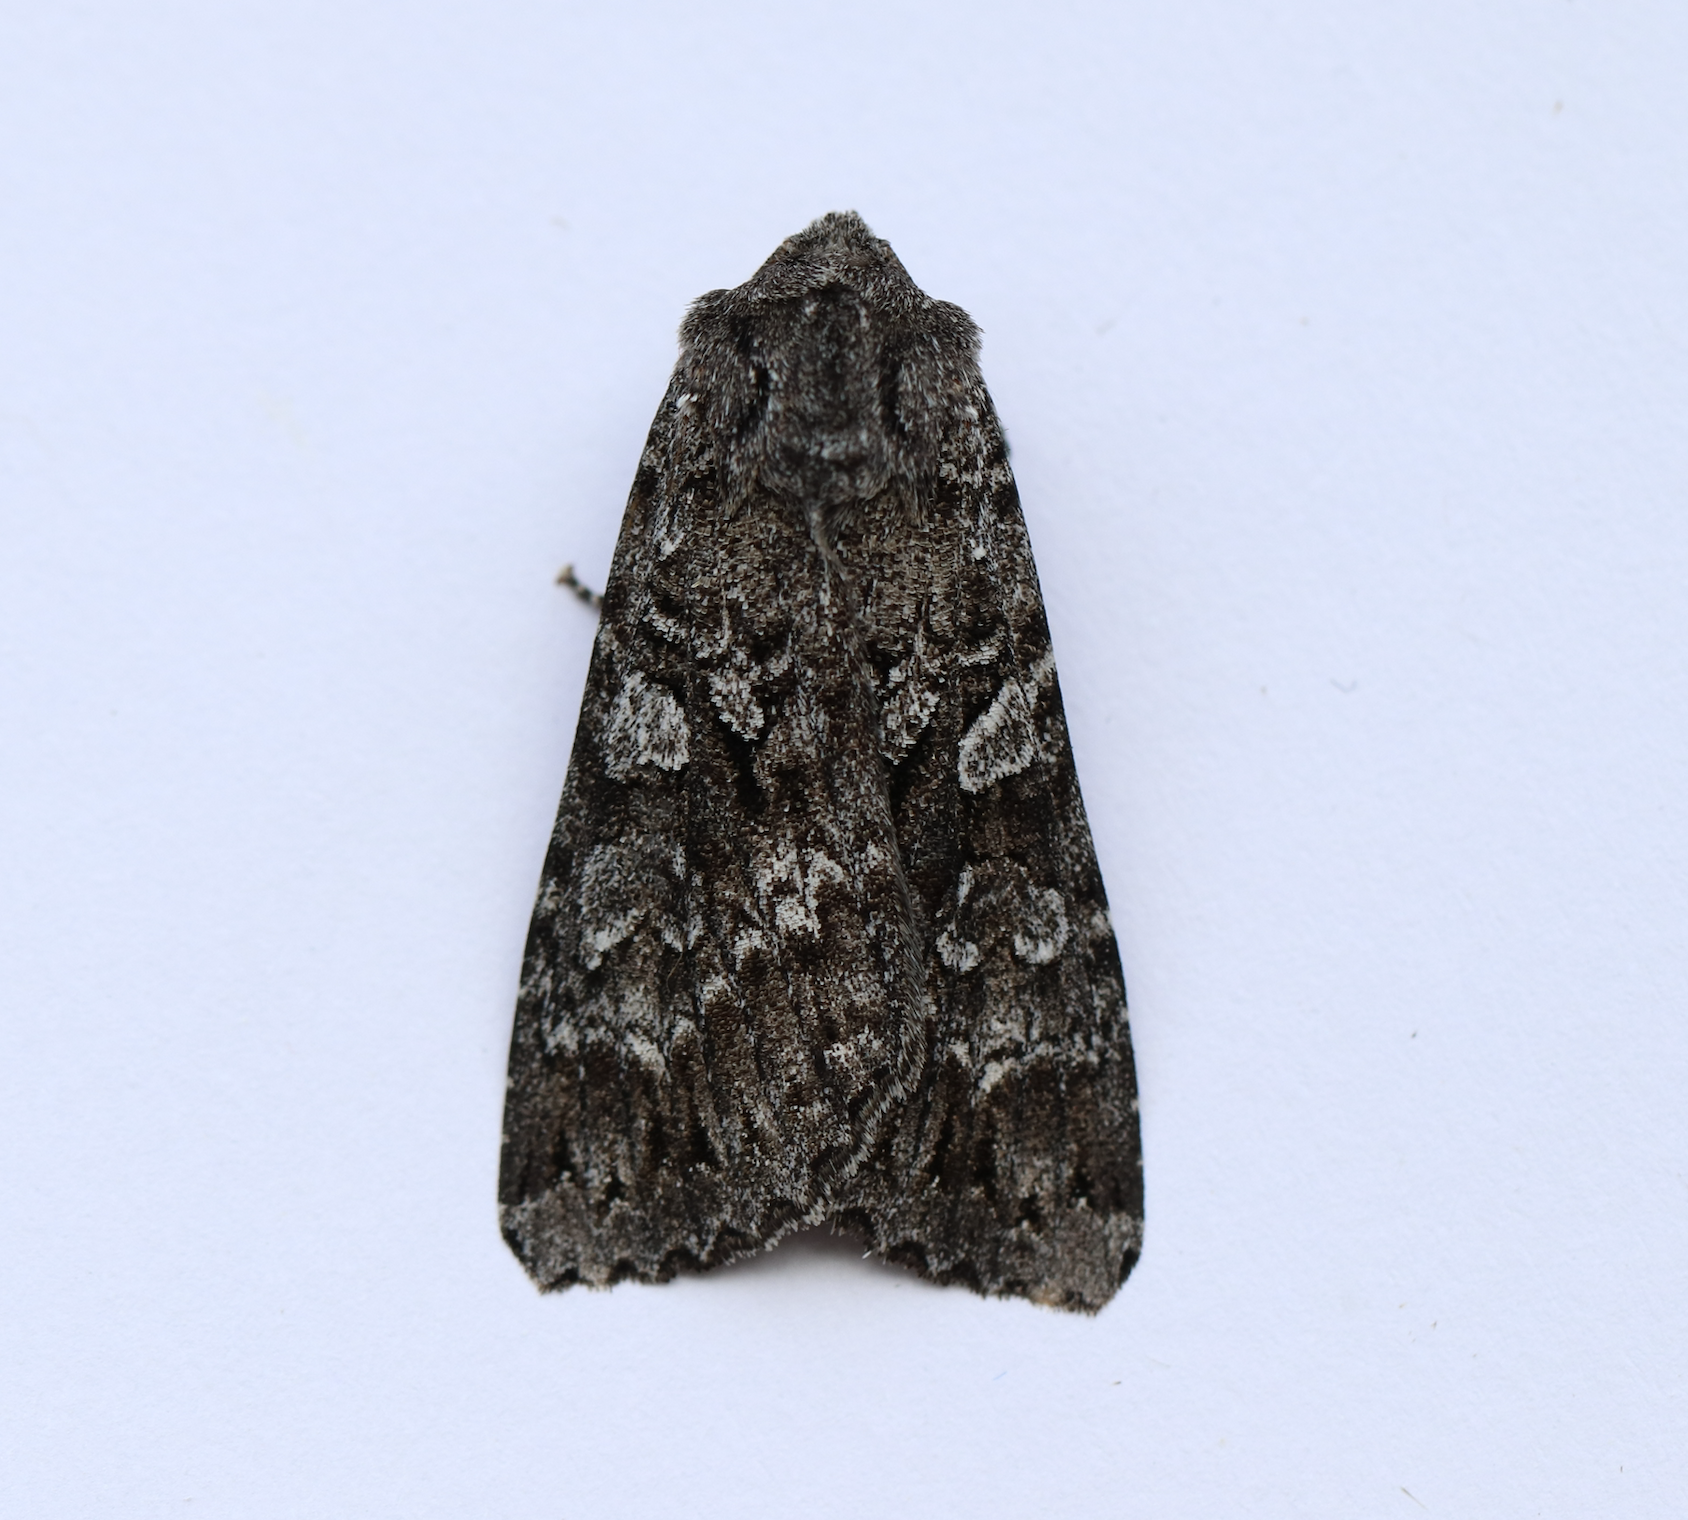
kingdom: Animalia
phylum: Arthropoda
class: Insecta
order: Lepidoptera
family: Noctuidae
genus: Eurois
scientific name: Eurois occulta
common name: Great brocade
